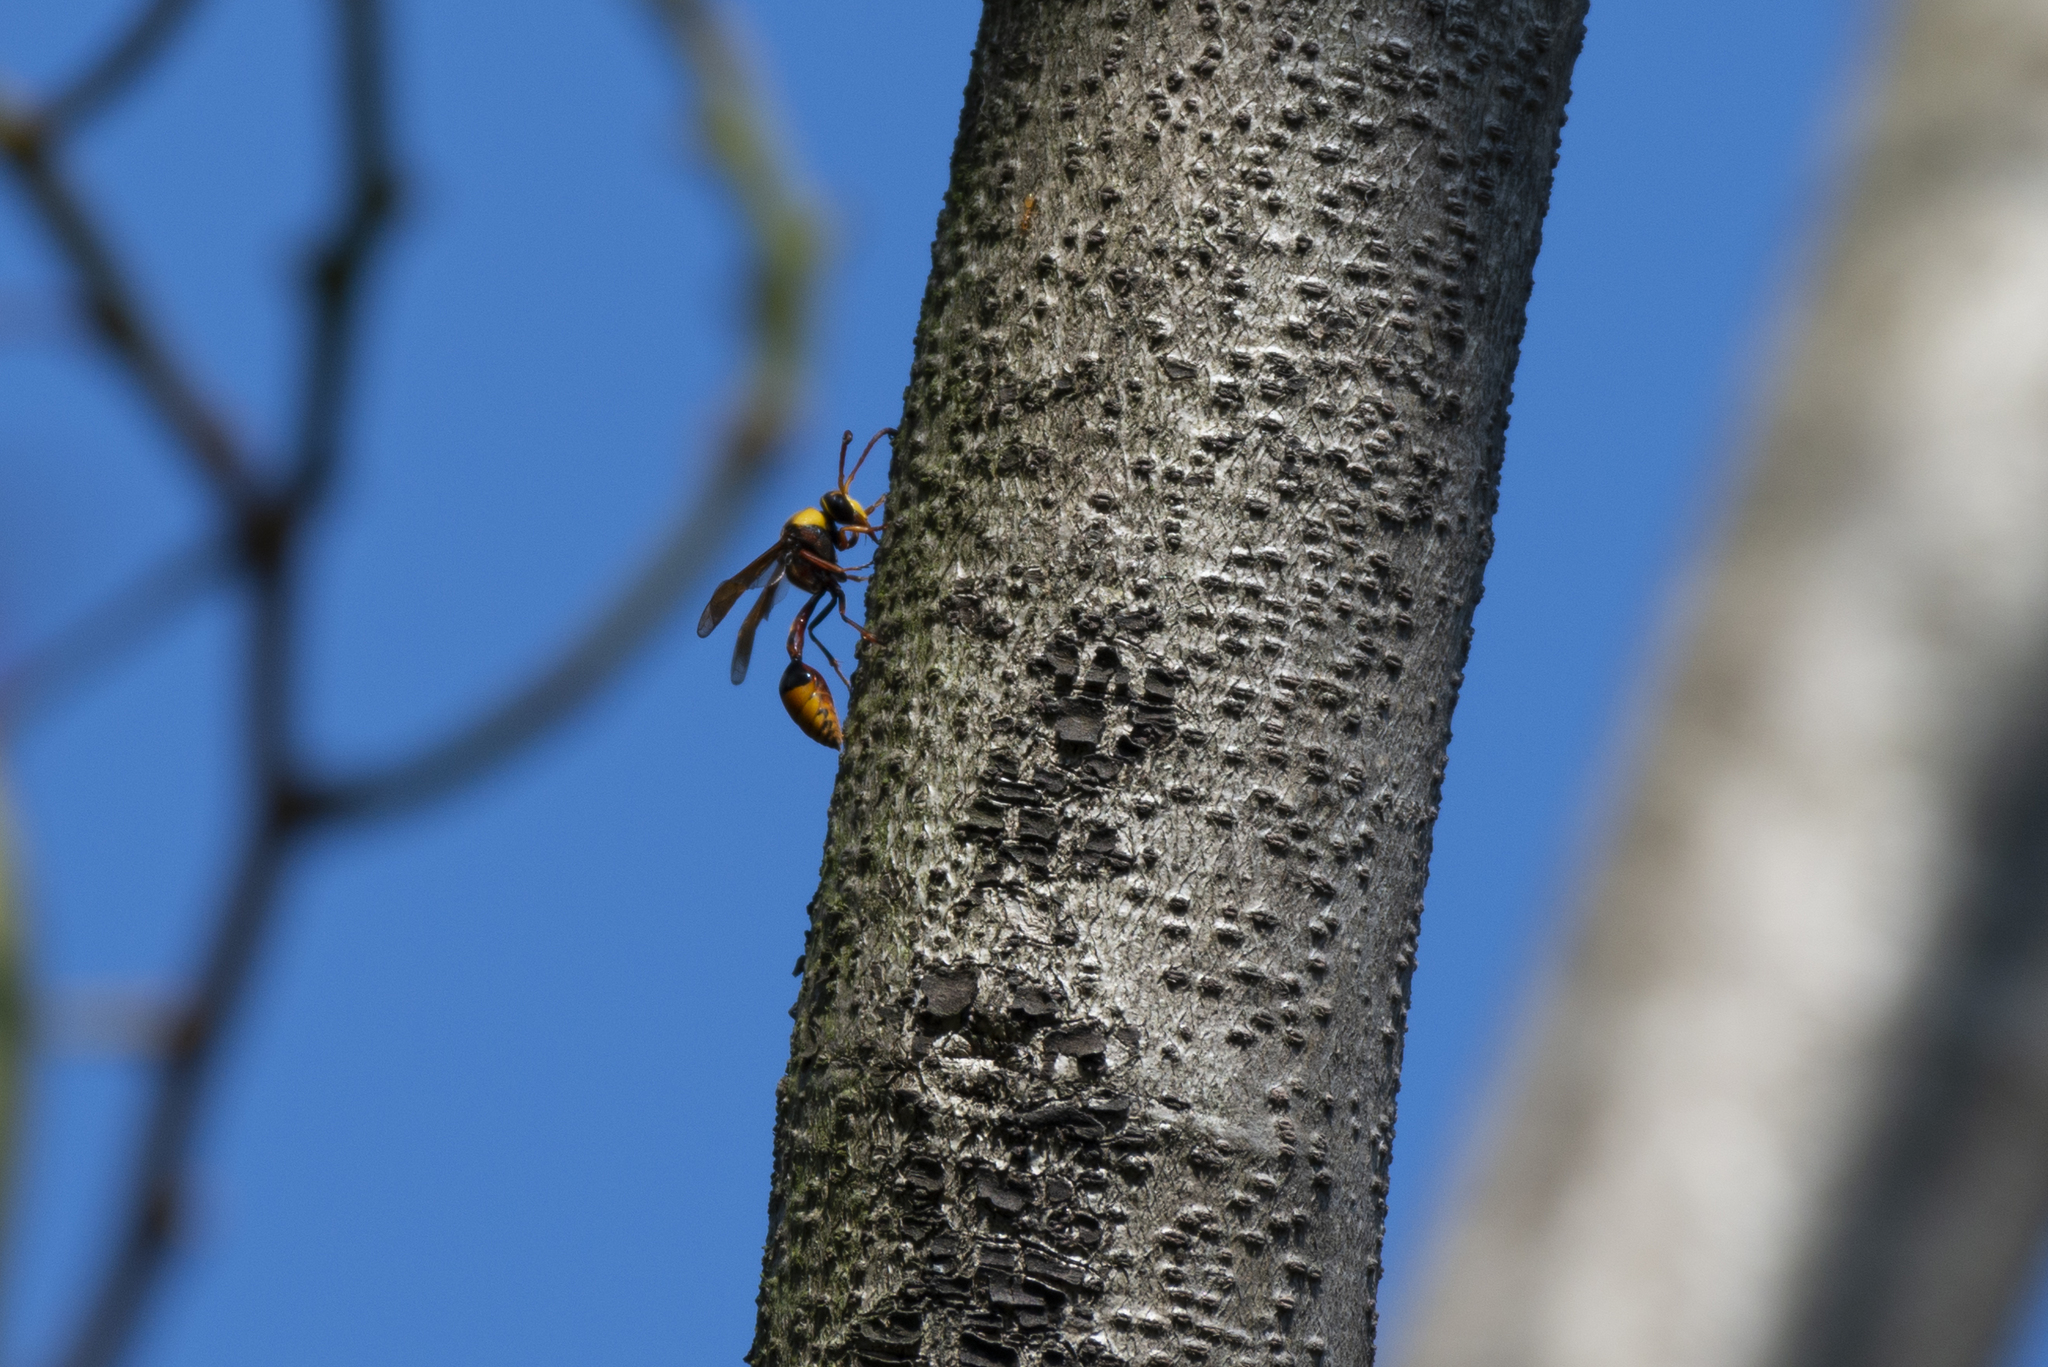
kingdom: Animalia
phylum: Arthropoda
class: Insecta
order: Hymenoptera
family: Eumenidae
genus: Delta
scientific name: Delta pyriforme
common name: Wasp
